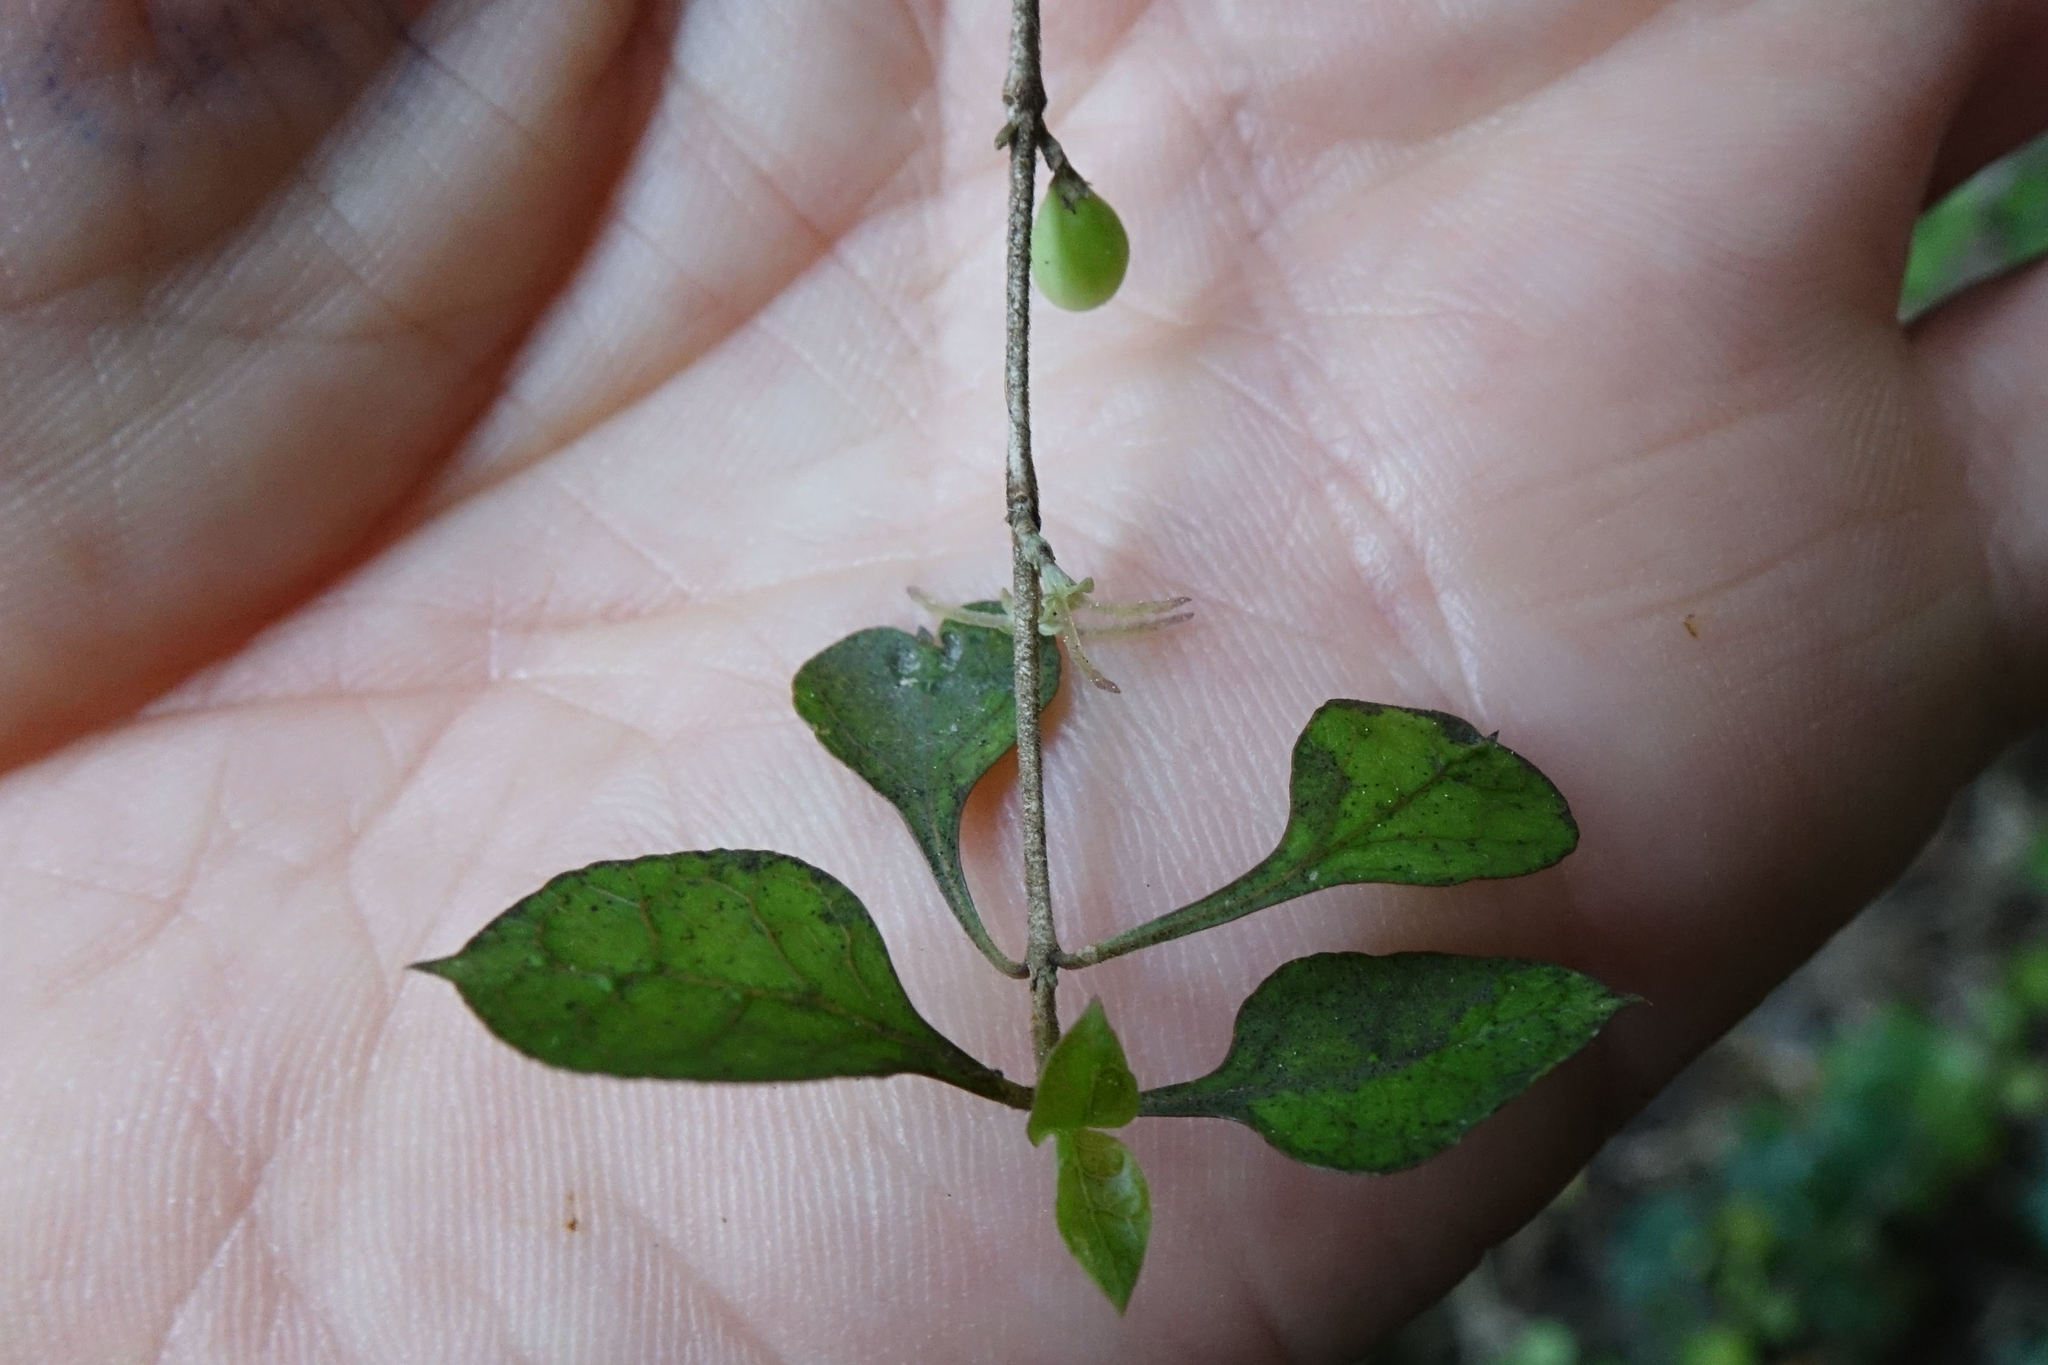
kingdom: Plantae
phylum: Tracheophyta
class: Magnoliopsida
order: Gentianales
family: Rubiaceae
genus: Coprosma
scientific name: Coprosma areolata
